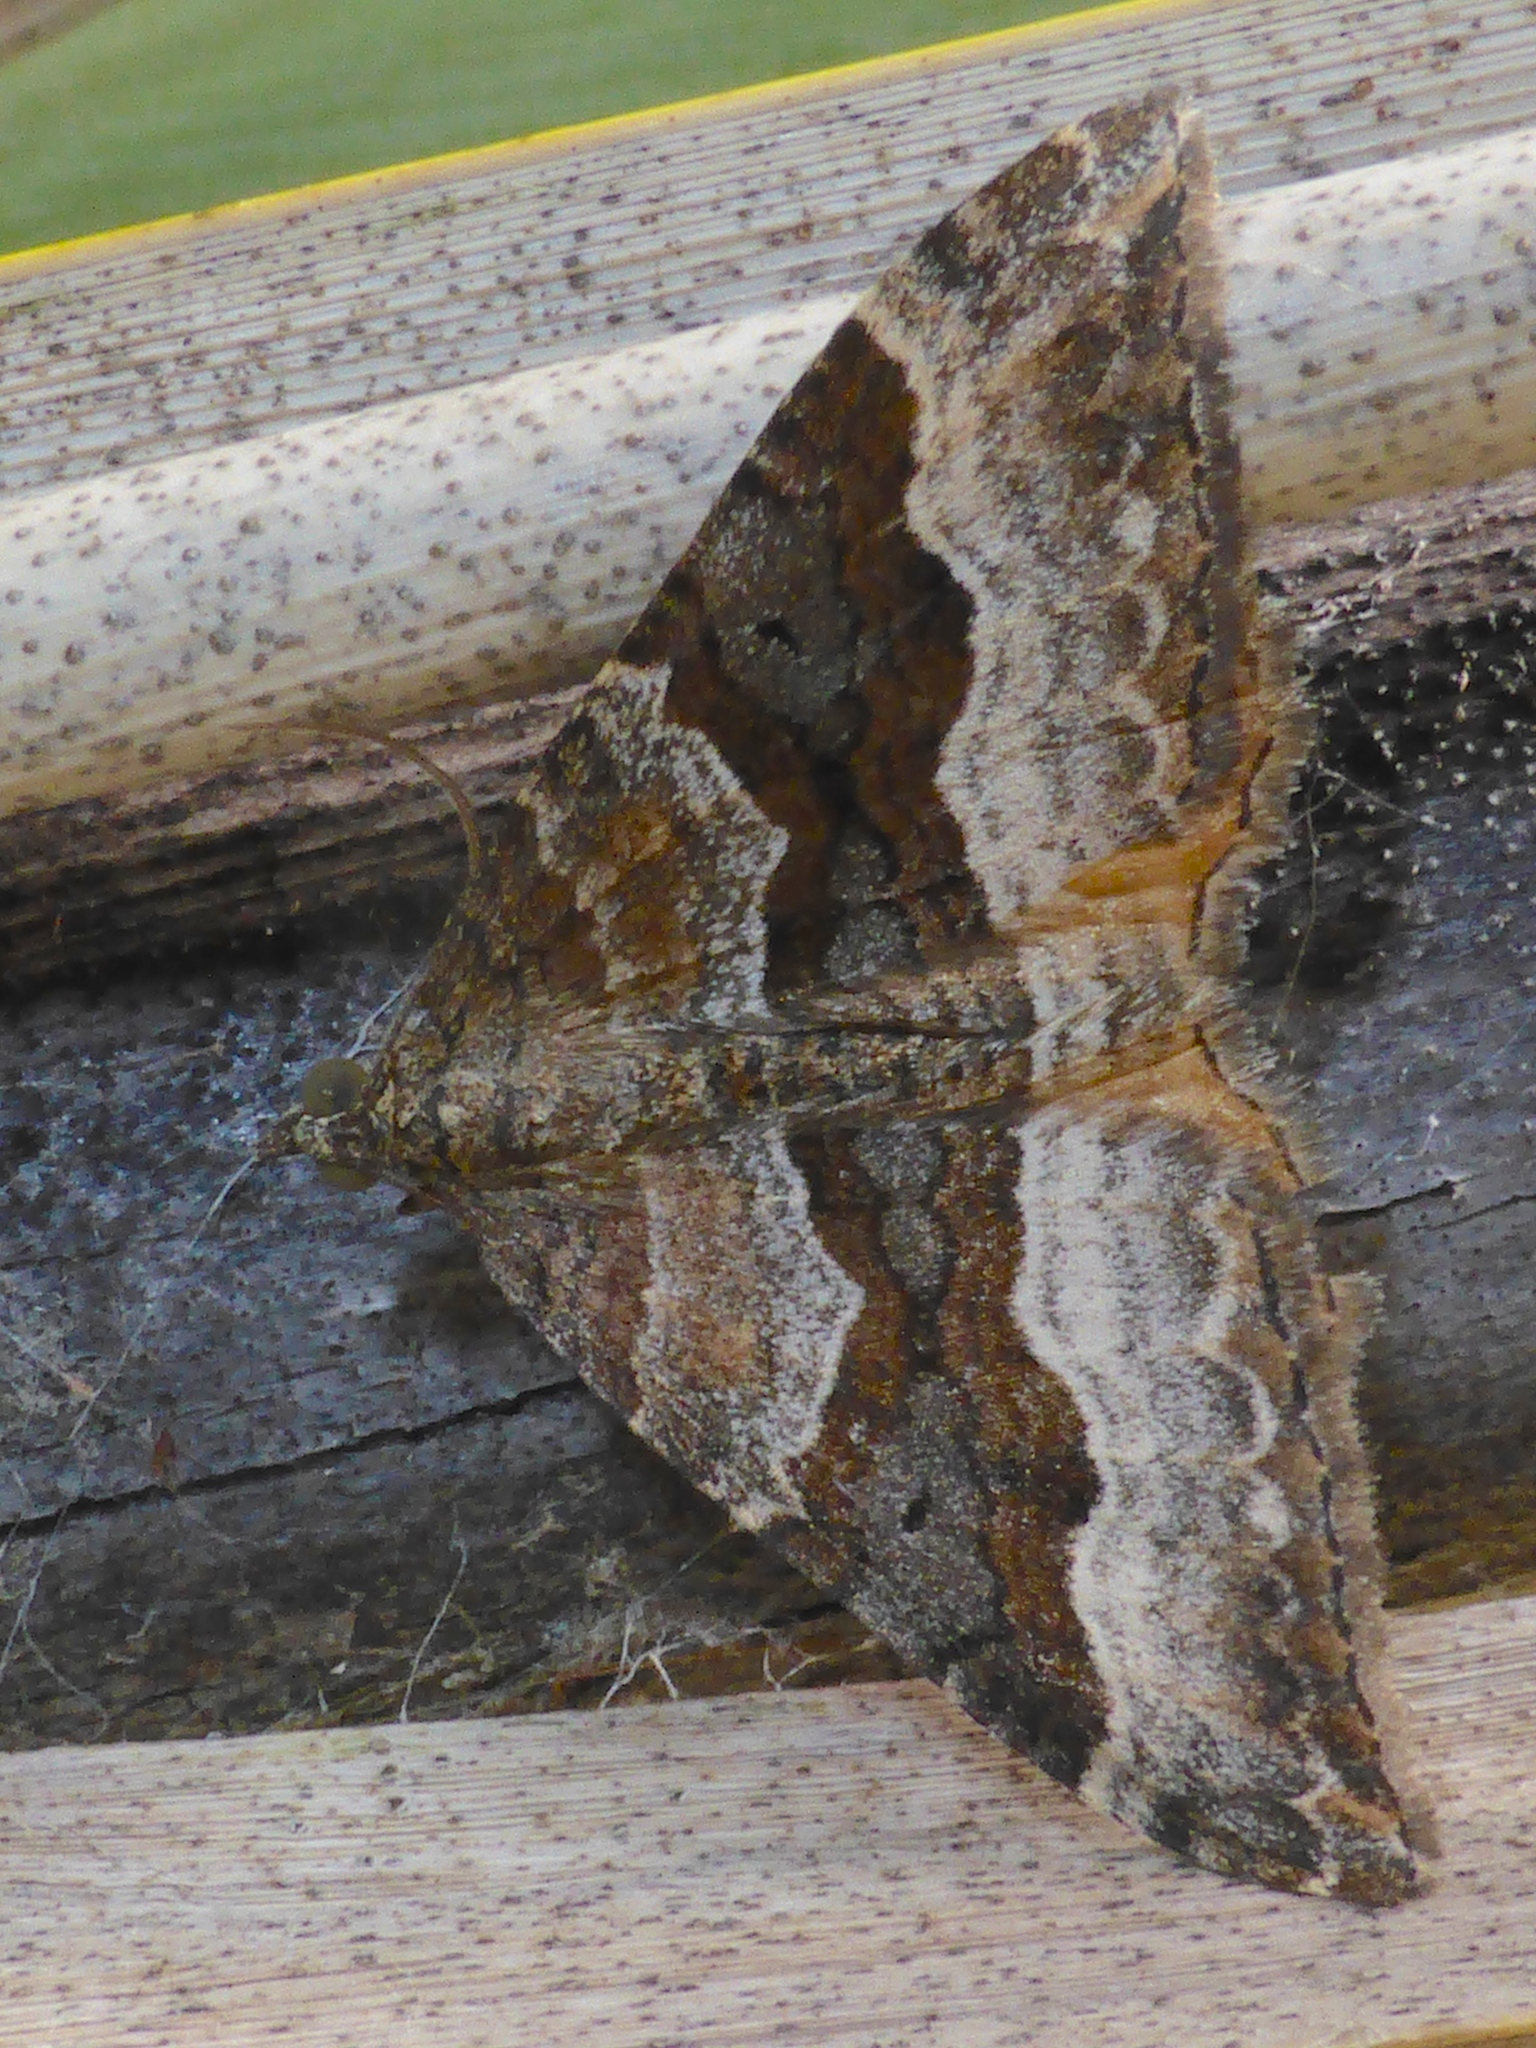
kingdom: Animalia
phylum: Arthropoda
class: Insecta
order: Lepidoptera
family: Geometridae
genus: Hydriomena
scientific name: Hydriomena deltoidata
